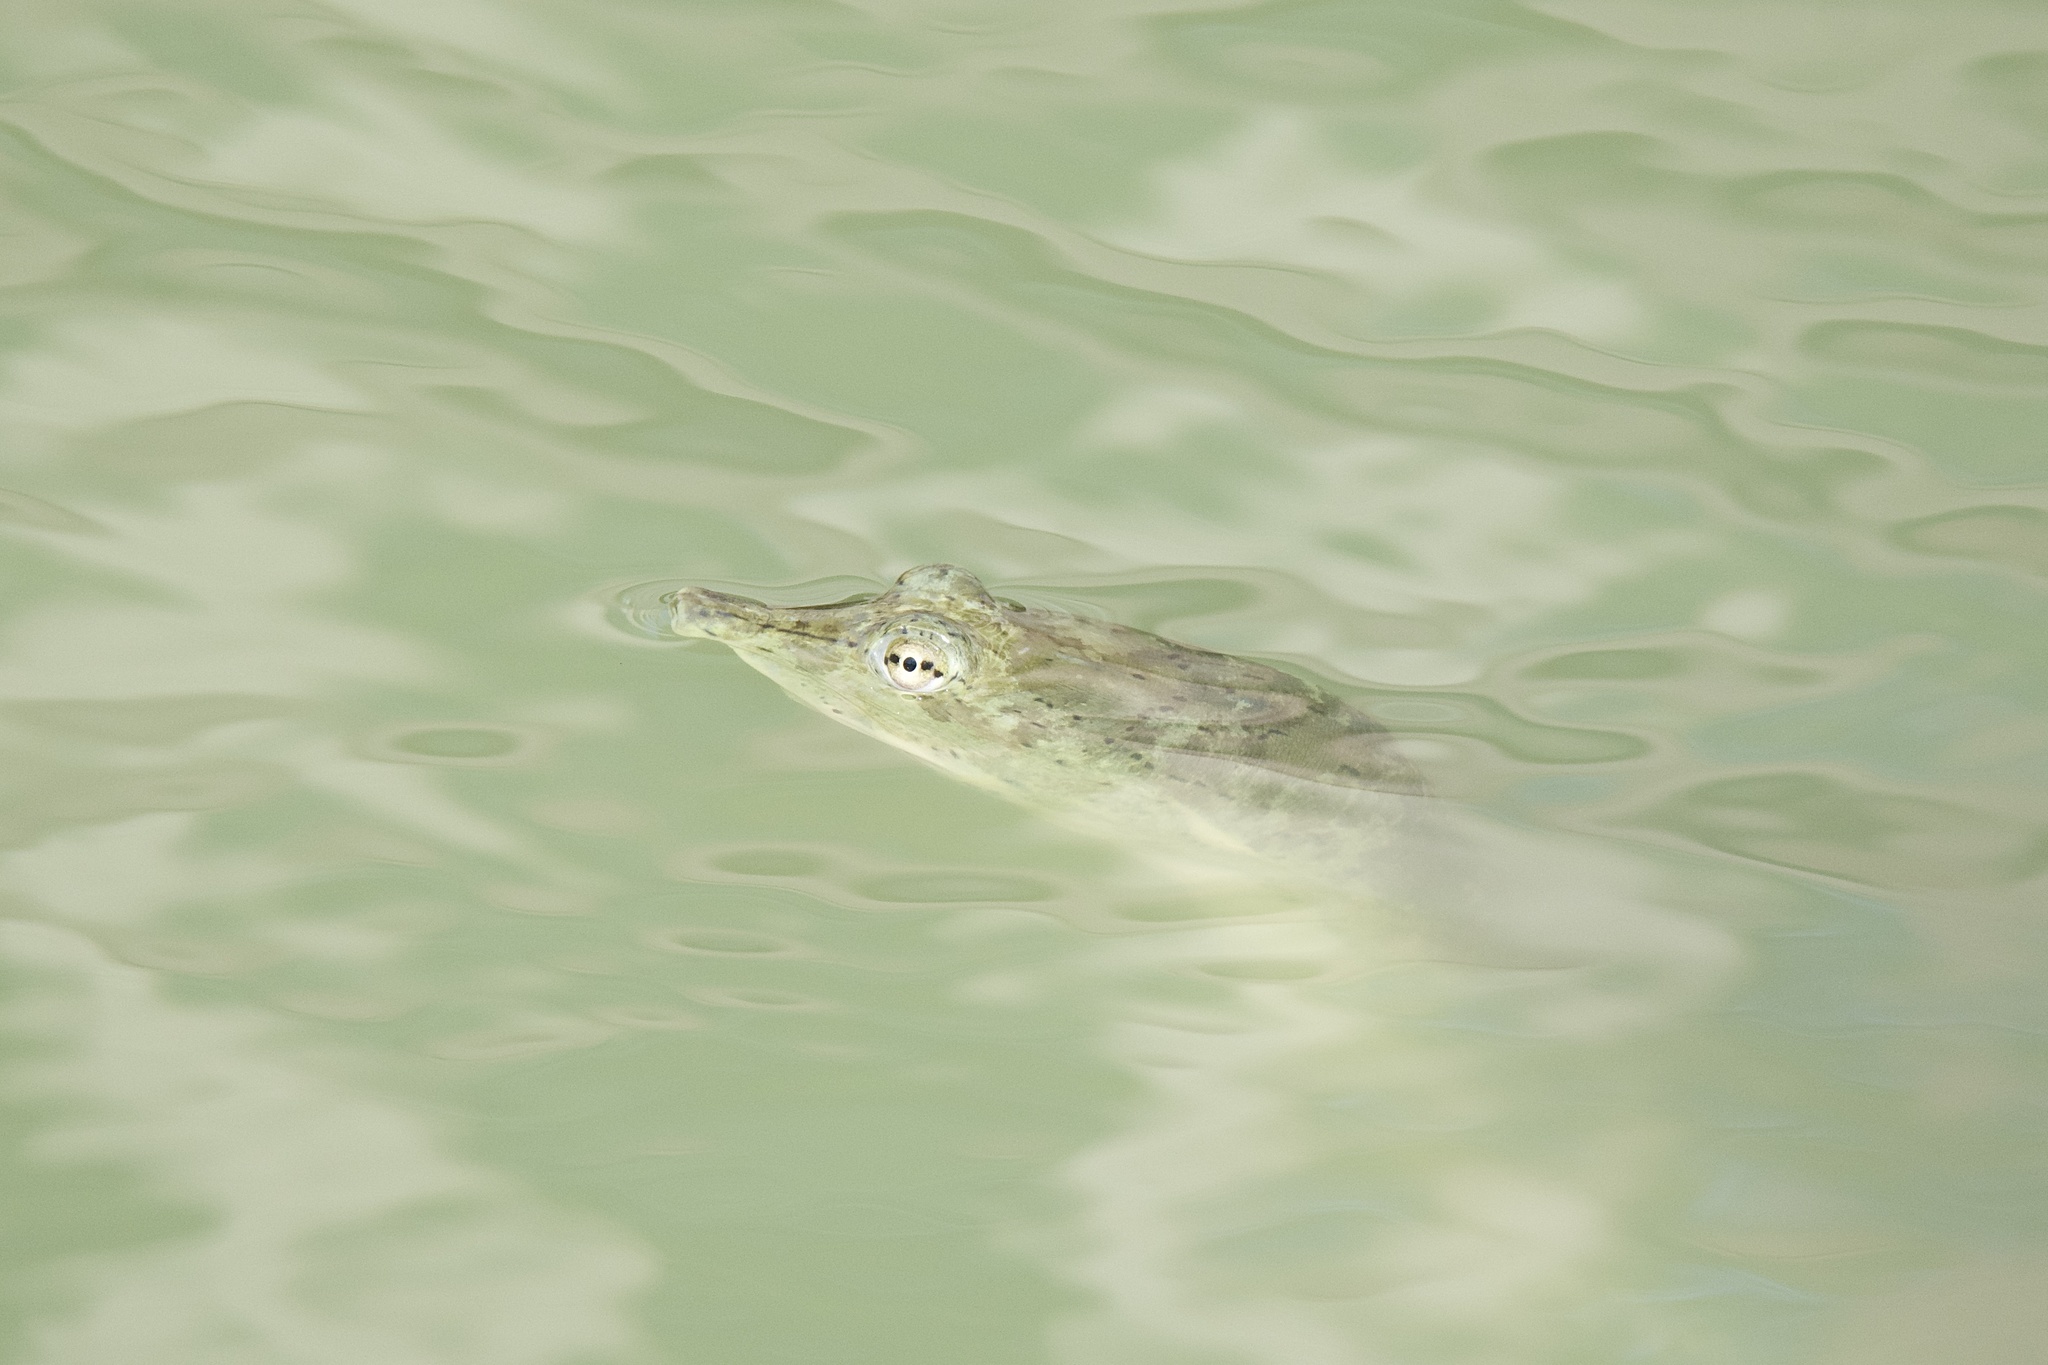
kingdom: Animalia
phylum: Chordata
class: Testudines
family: Trionychidae
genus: Apalone
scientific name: Apalone spinifera
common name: Spiny softshell turtle
